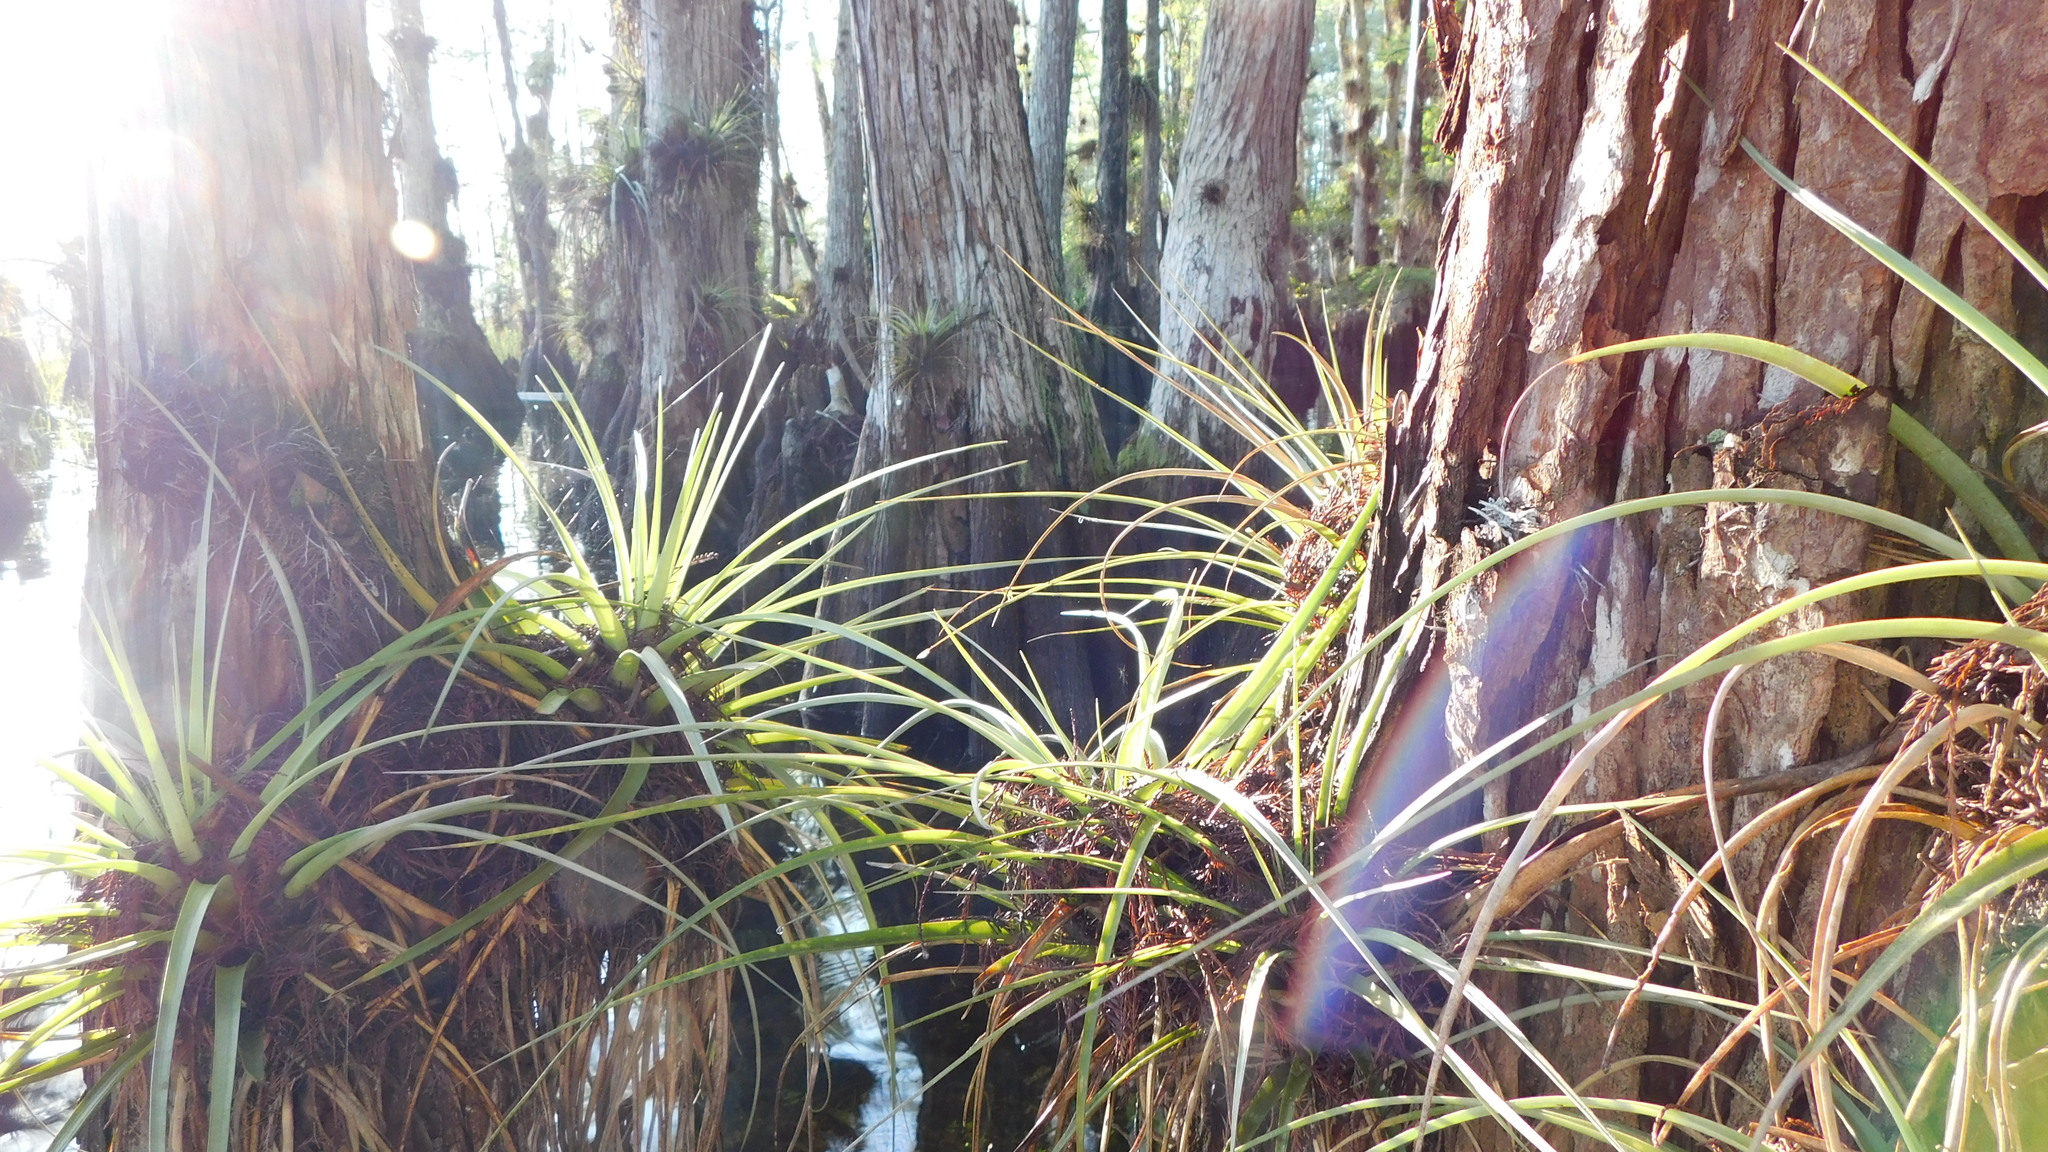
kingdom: Plantae
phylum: Tracheophyta
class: Liliopsida
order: Poales
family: Bromeliaceae
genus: Tillandsia
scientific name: Tillandsia fasciculata
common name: Giant airplant
